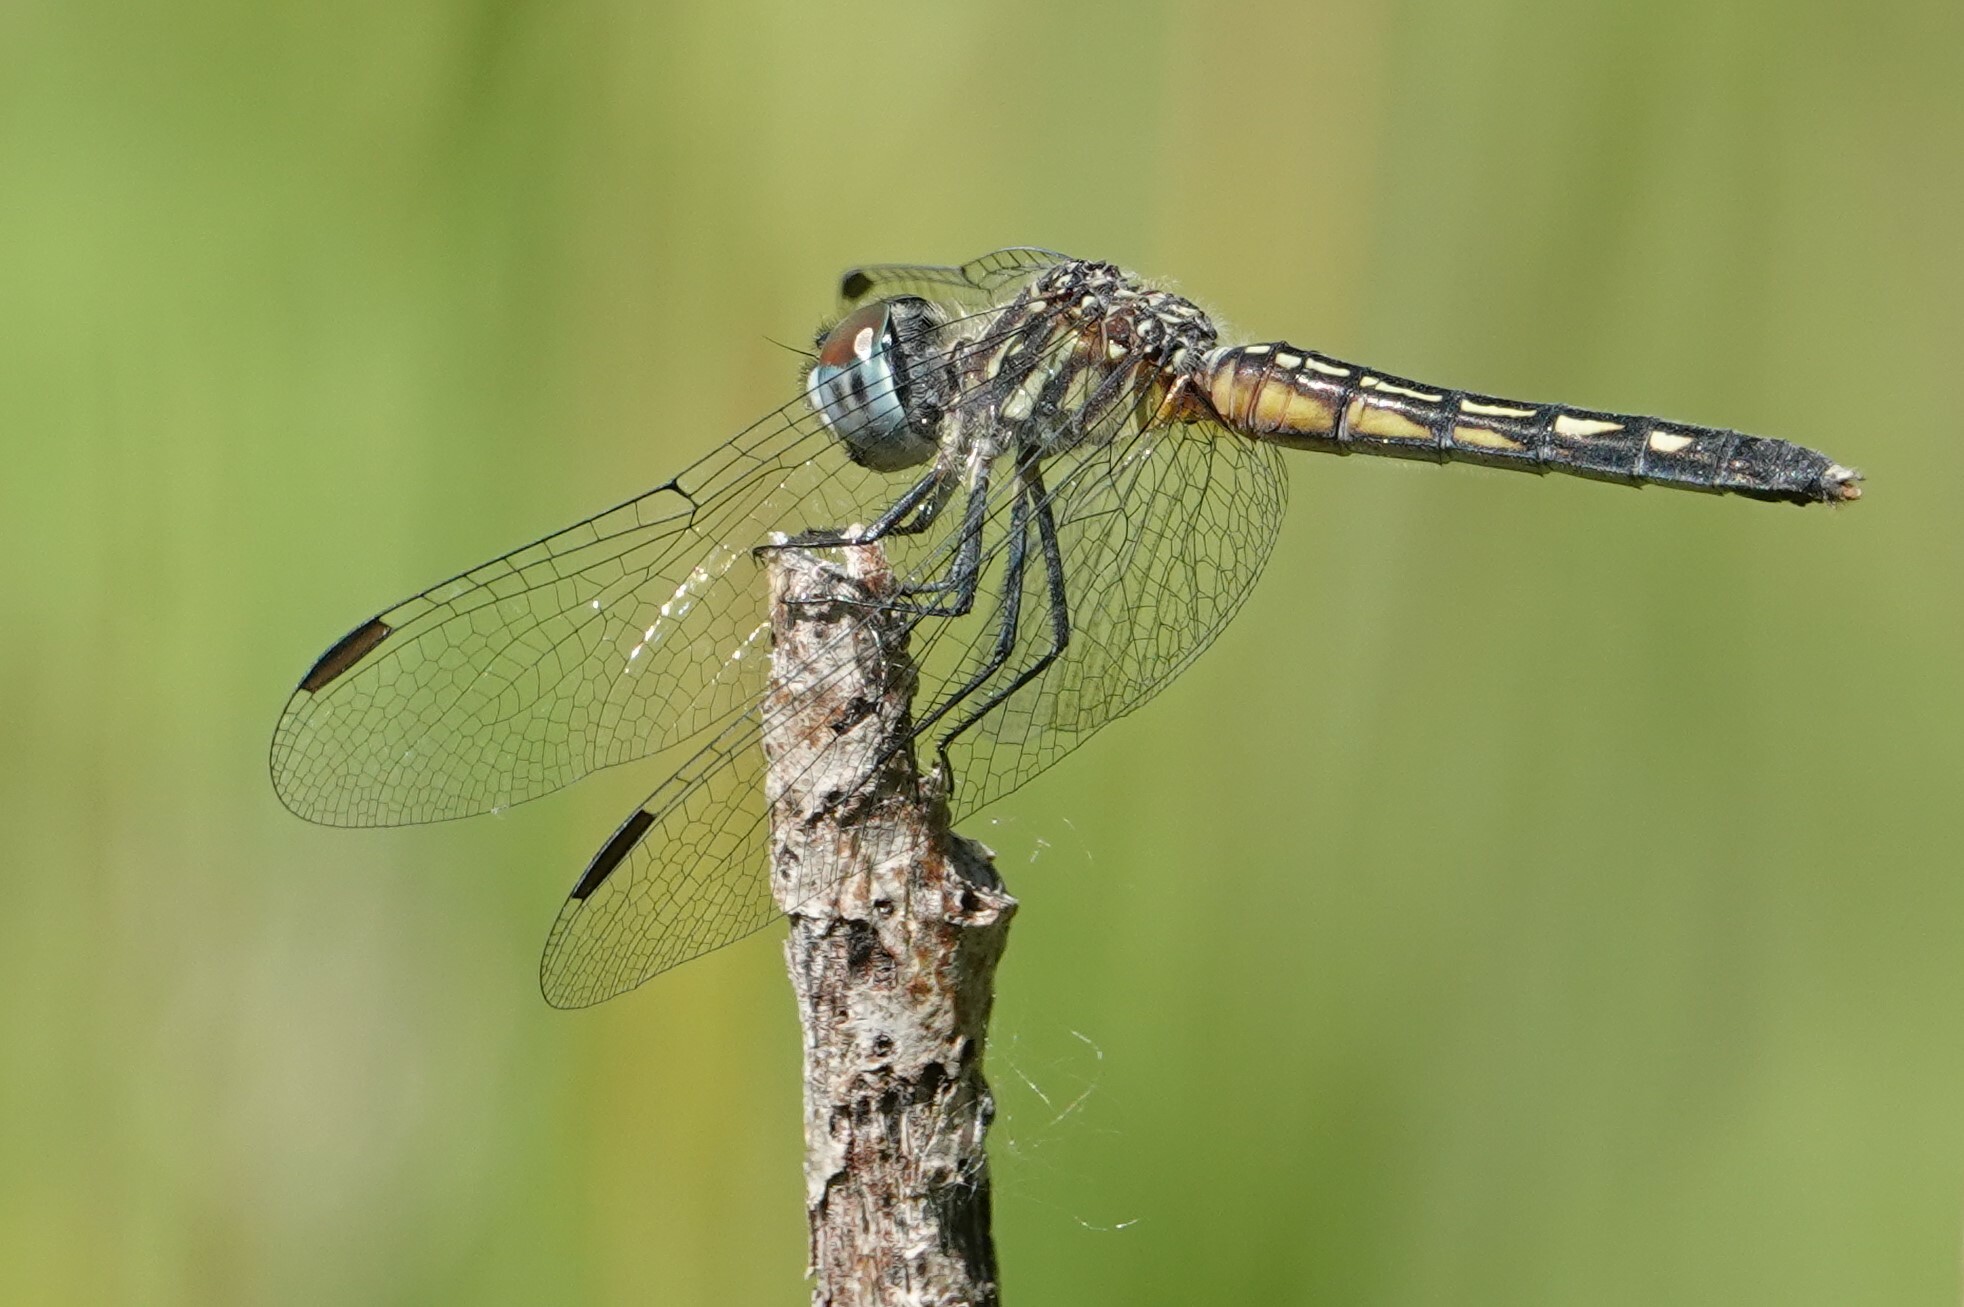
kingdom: Animalia
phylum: Arthropoda
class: Insecta
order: Odonata
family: Libellulidae
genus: Pachydiplax
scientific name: Pachydiplax longipennis
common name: Blue dasher
